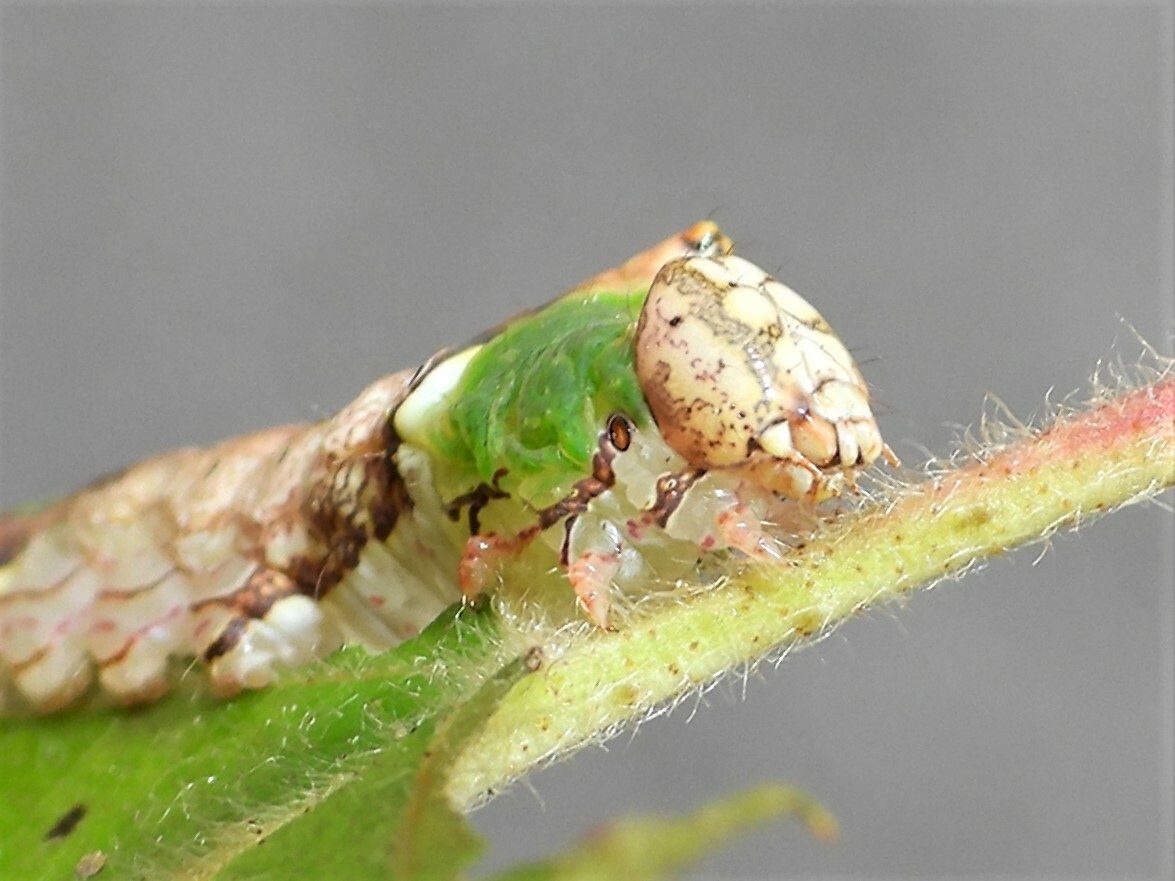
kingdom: Animalia
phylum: Arthropoda
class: Insecta
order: Lepidoptera
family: Notodontidae
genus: Oligocentria
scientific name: Oligocentria Ianassa lignicolor
